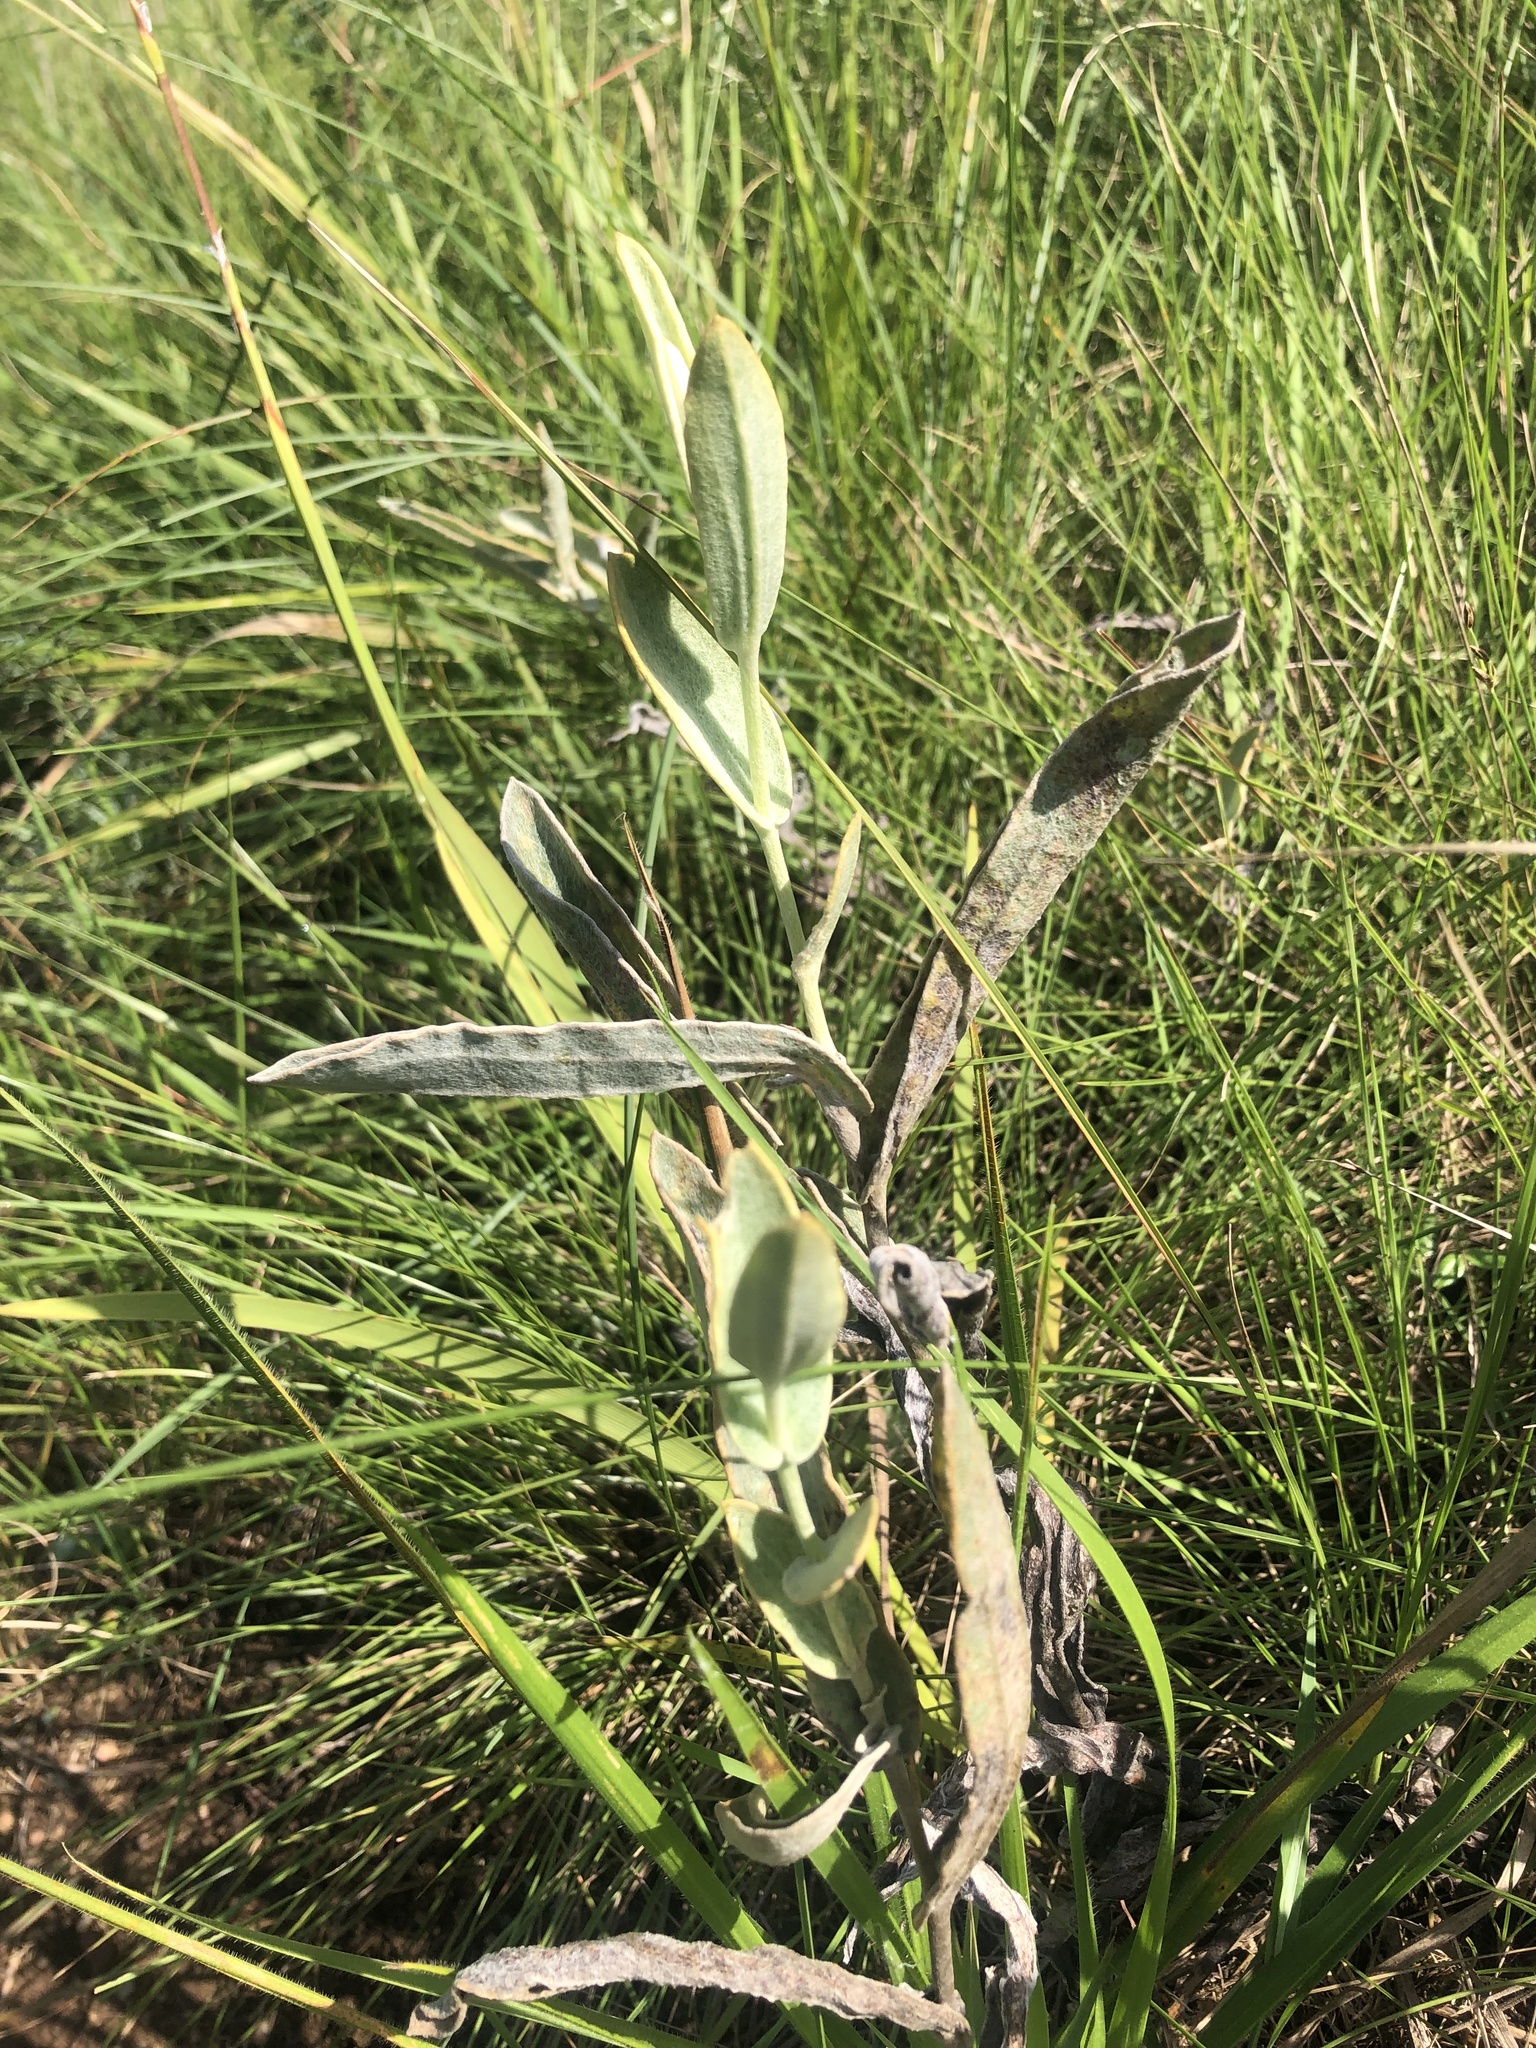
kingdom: Plantae
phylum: Tracheophyta
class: Magnoliopsida
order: Asterales
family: Asteraceae
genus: Helichrysum
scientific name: Helichrysum pannosum
